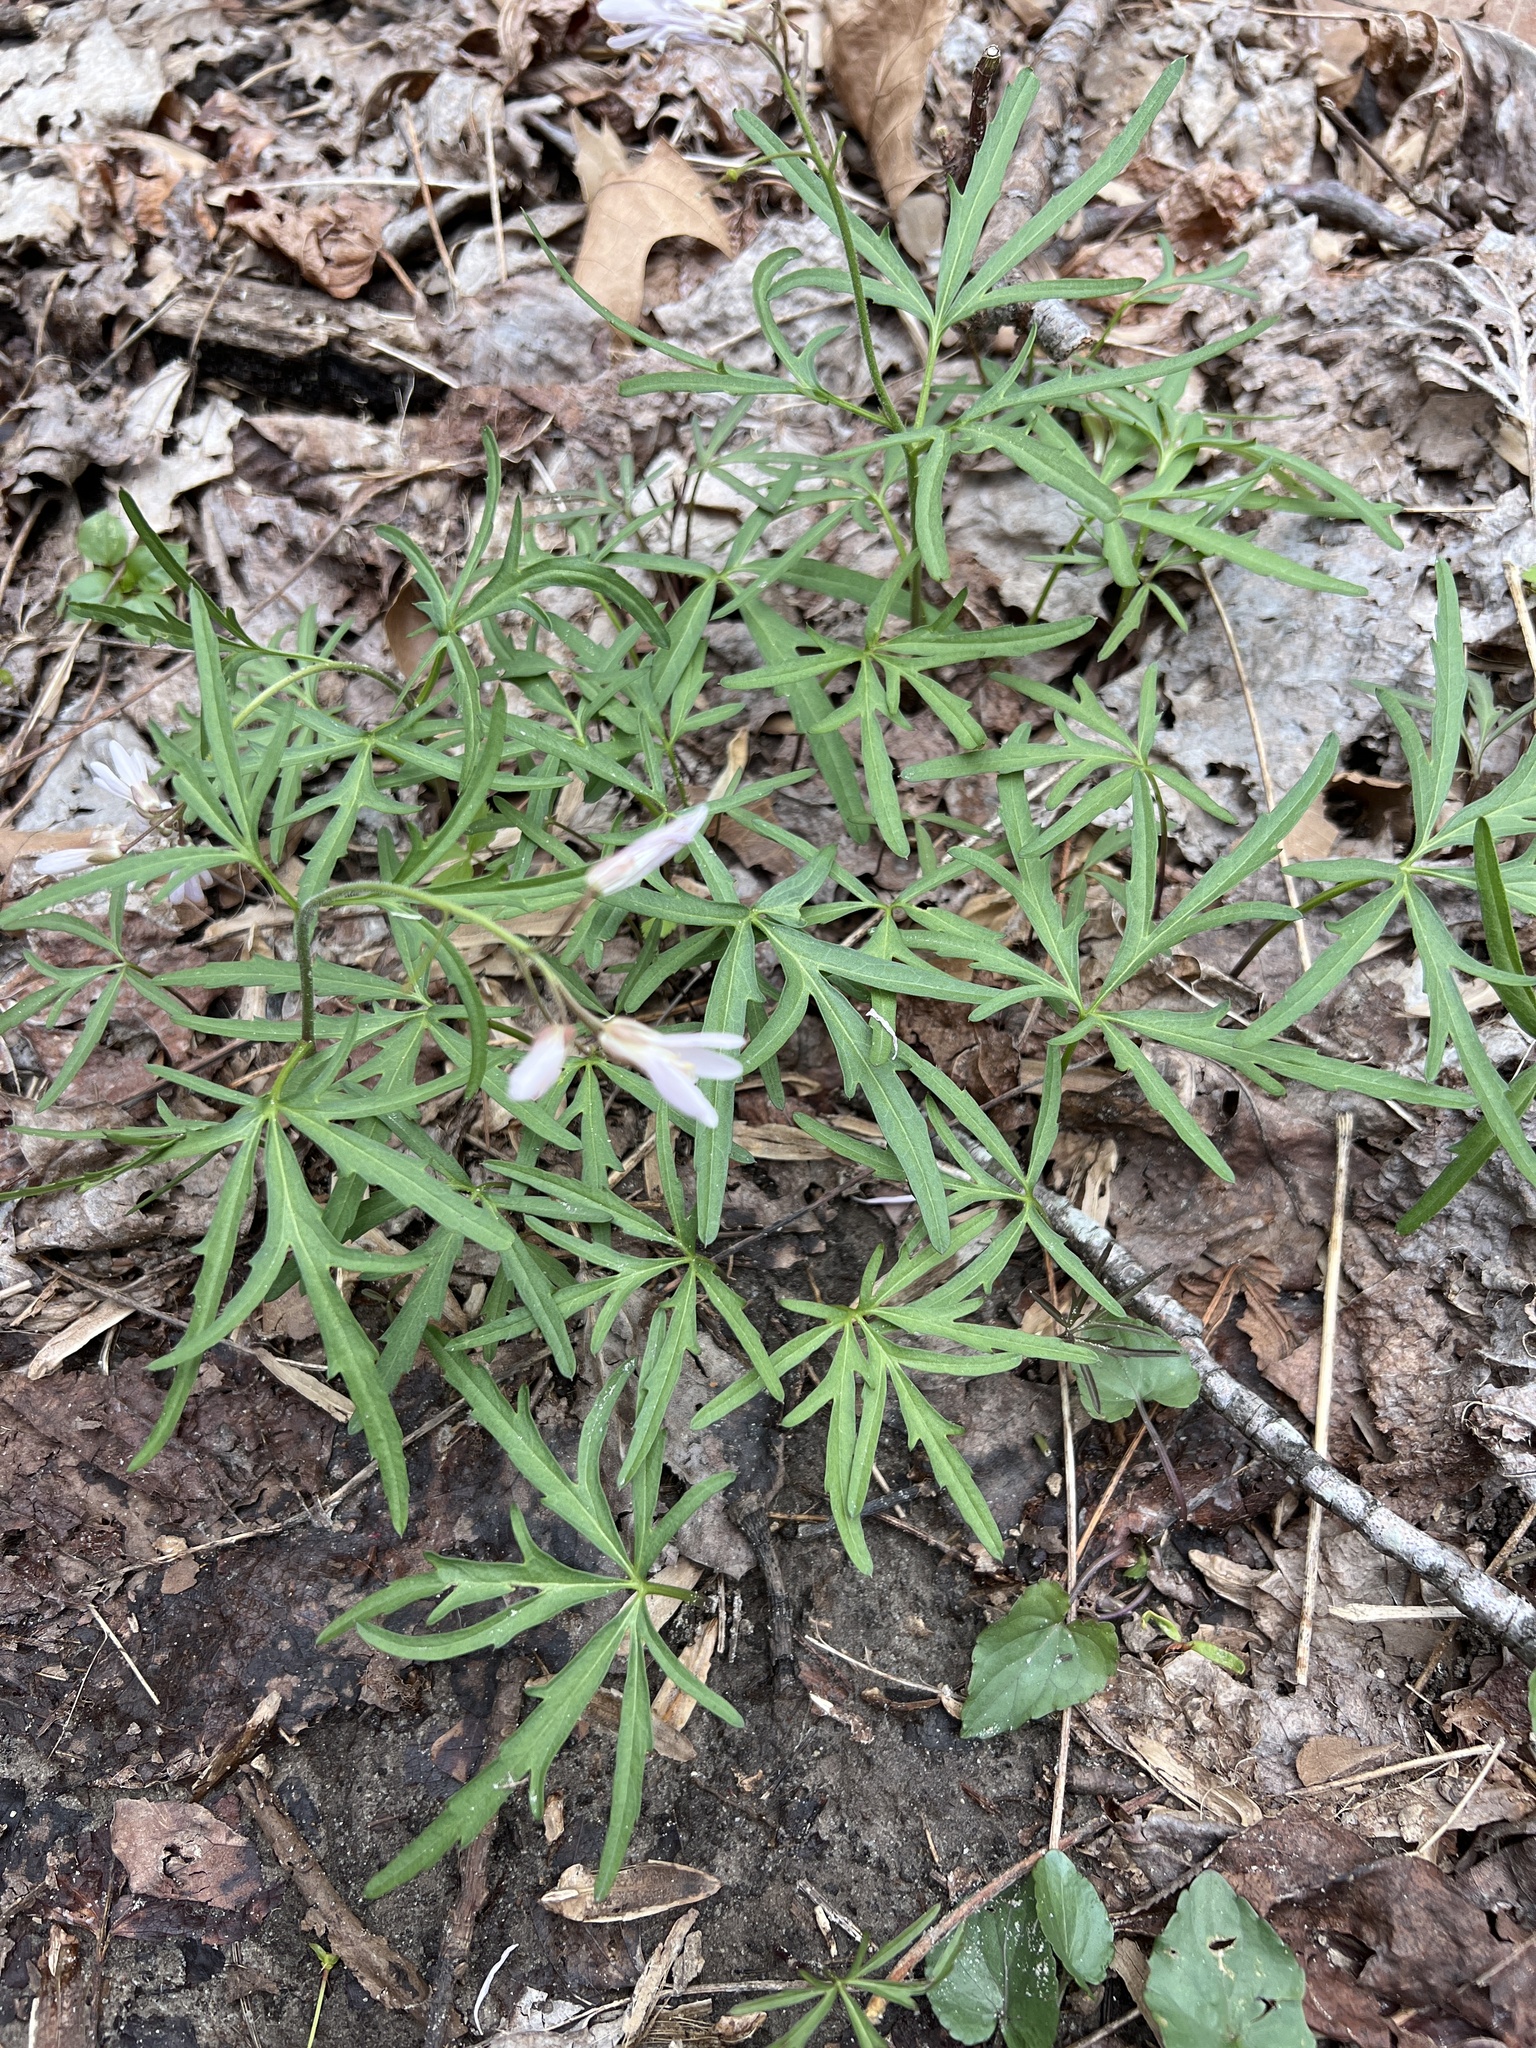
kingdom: Plantae
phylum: Tracheophyta
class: Magnoliopsida
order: Brassicales
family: Brassicaceae
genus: Cardamine
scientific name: Cardamine concatenata
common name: Cut-leaf toothcup
